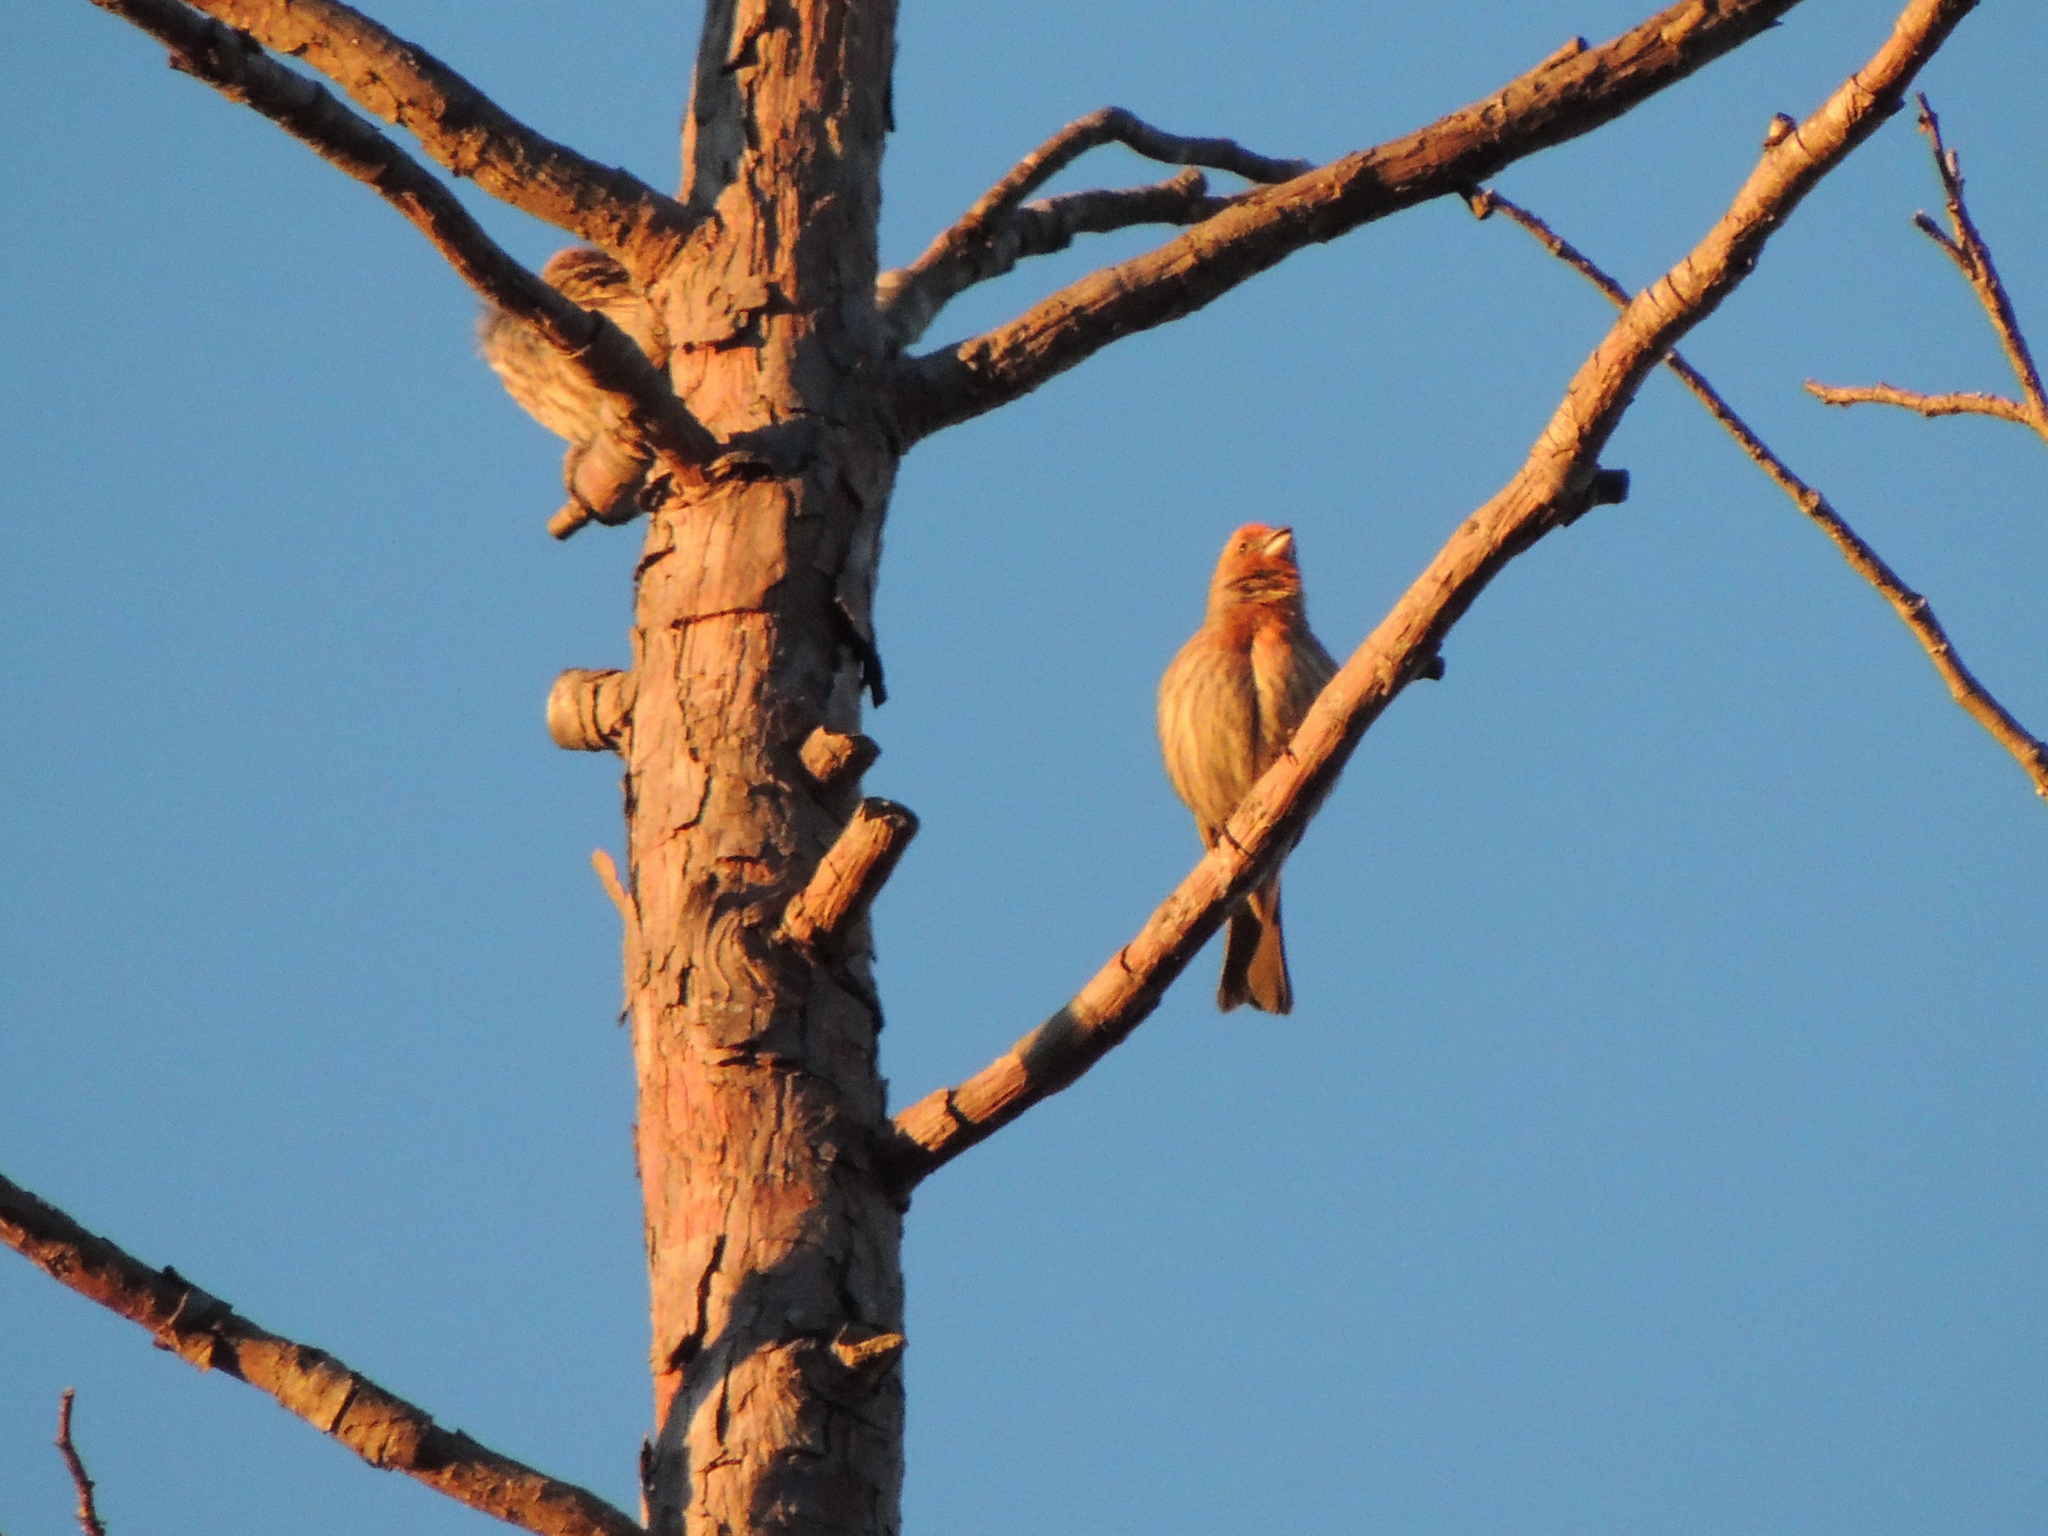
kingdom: Animalia
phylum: Chordata
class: Aves
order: Passeriformes
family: Fringillidae
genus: Haemorhous
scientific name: Haemorhous mexicanus
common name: House finch
